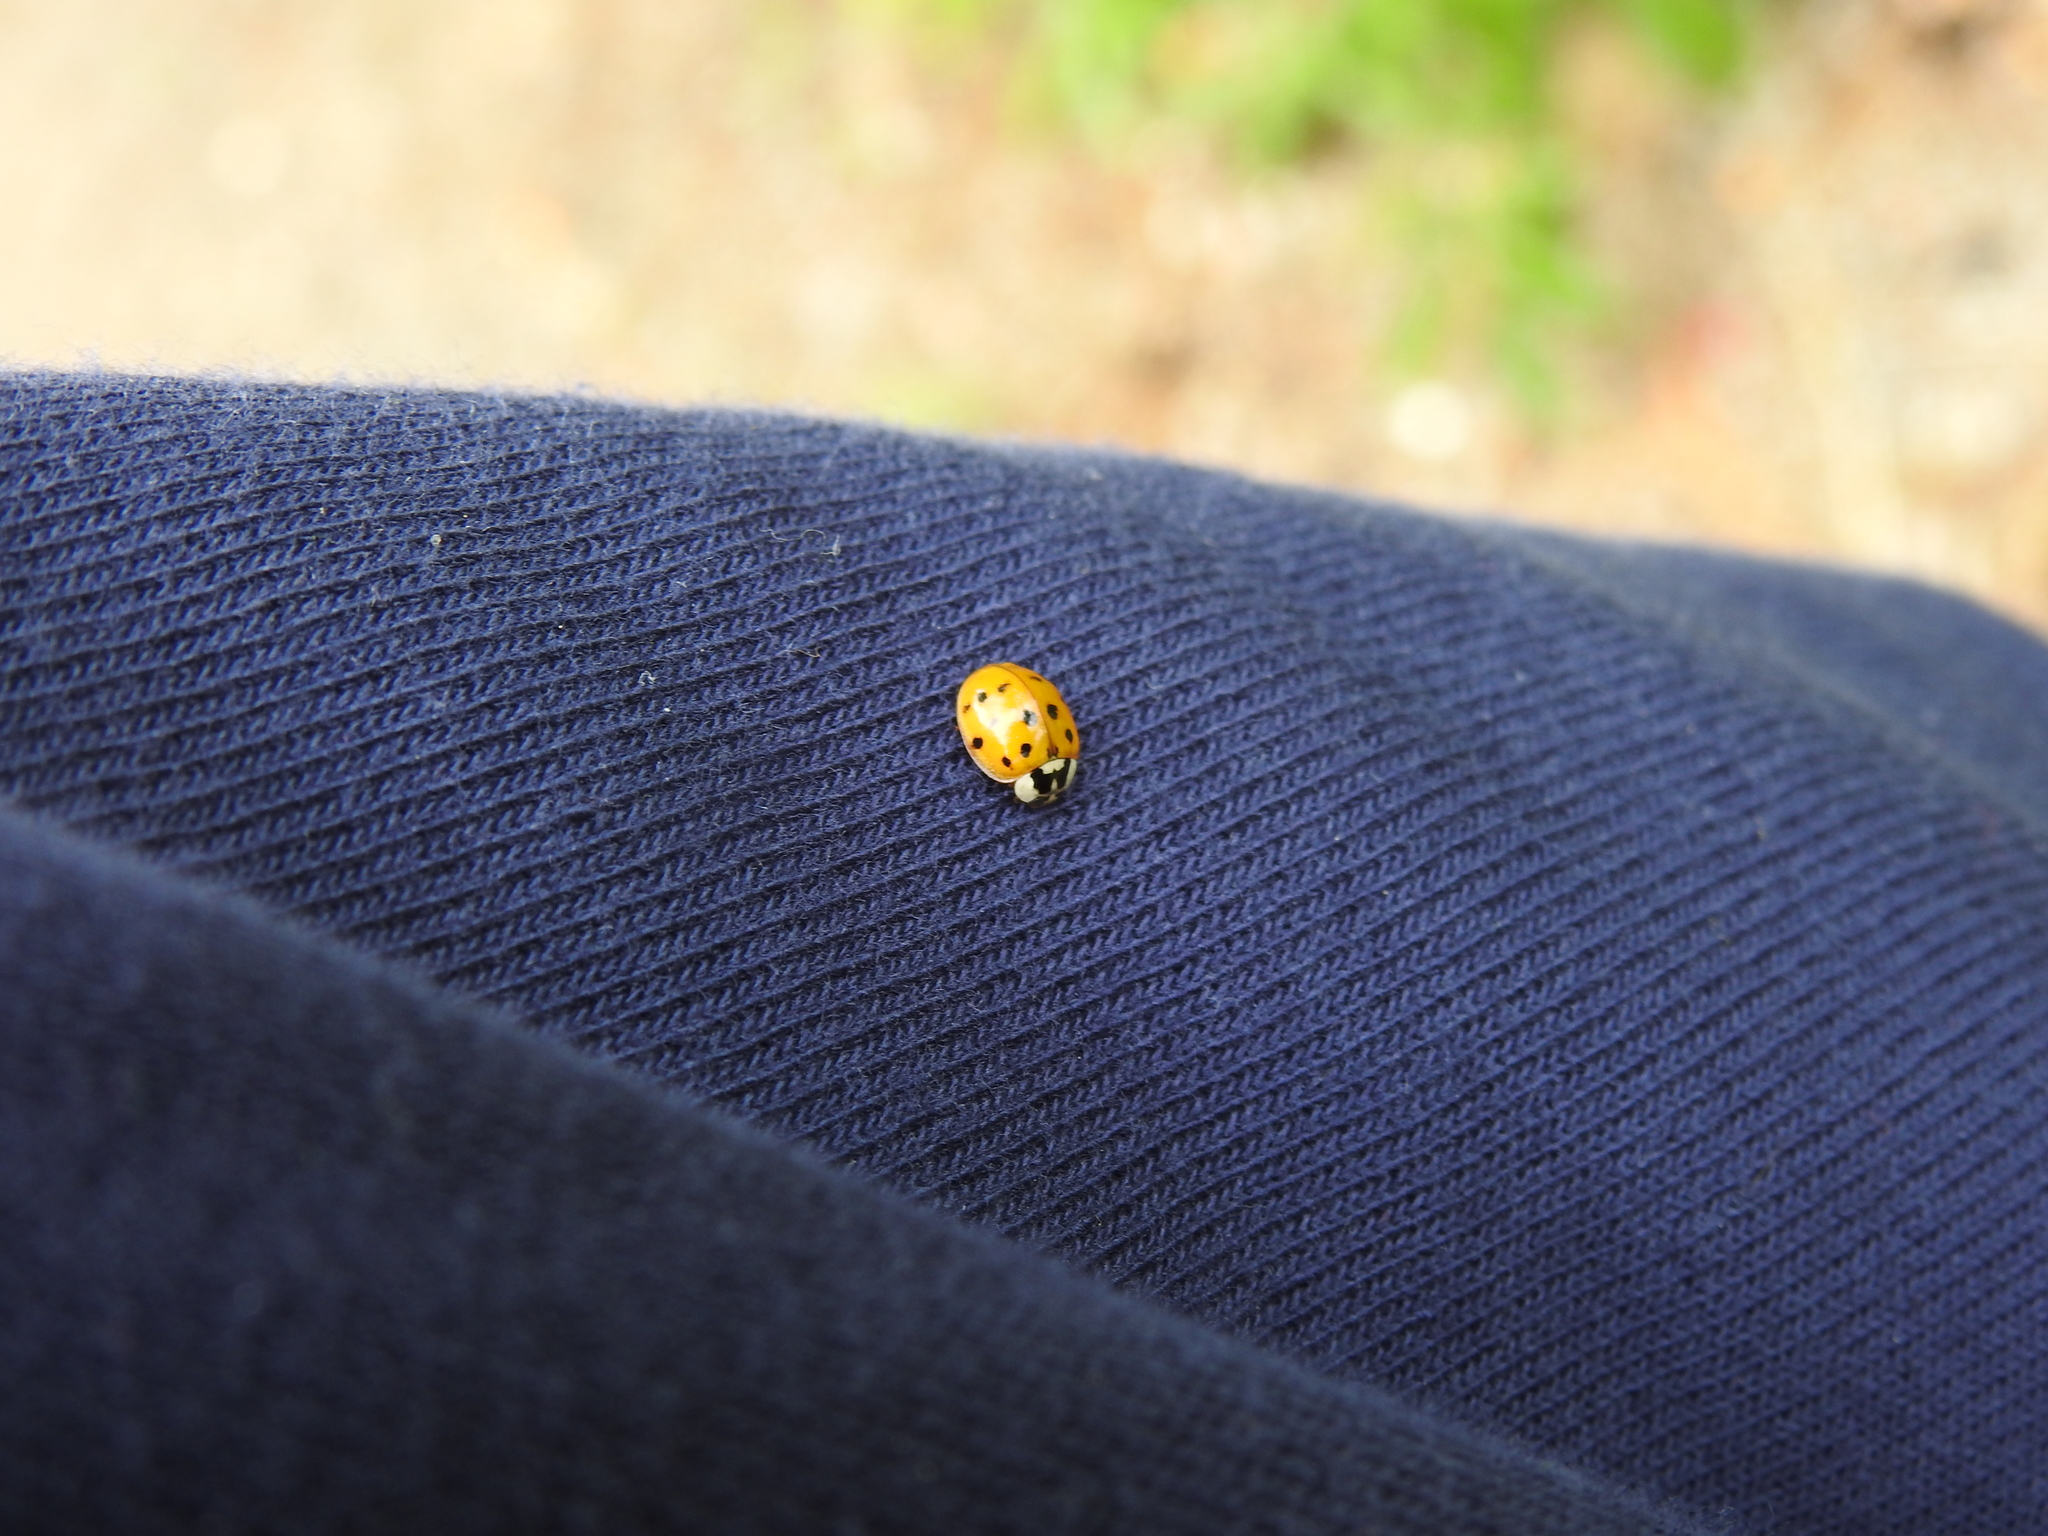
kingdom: Animalia
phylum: Arthropoda
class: Insecta
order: Coleoptera
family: Coccinellidae
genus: Harmonia
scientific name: Harmonia axyridis
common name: Harlequin ladybird
